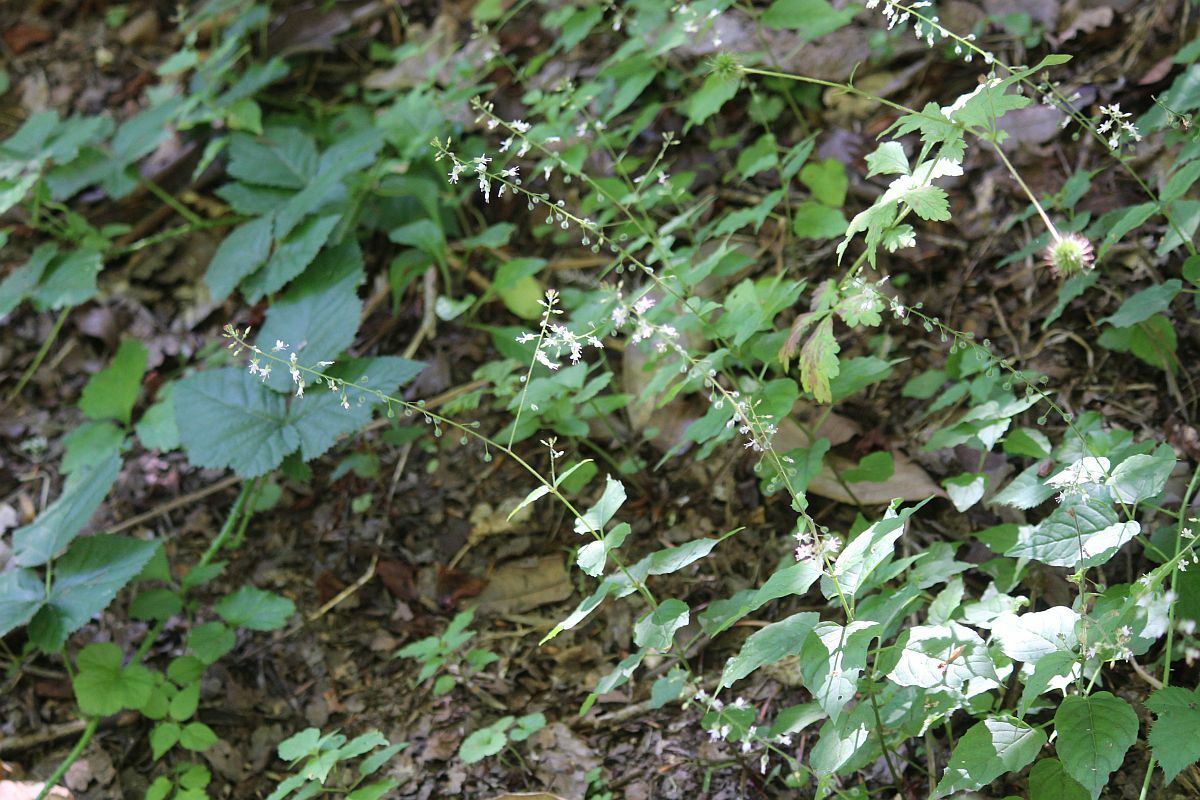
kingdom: Plantae
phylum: Tracheophyta
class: Magnoliopsida
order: Myrtales
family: Onagraceae
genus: Circaea
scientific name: Circaea lutetiana
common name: Enchanter's-nightshade
